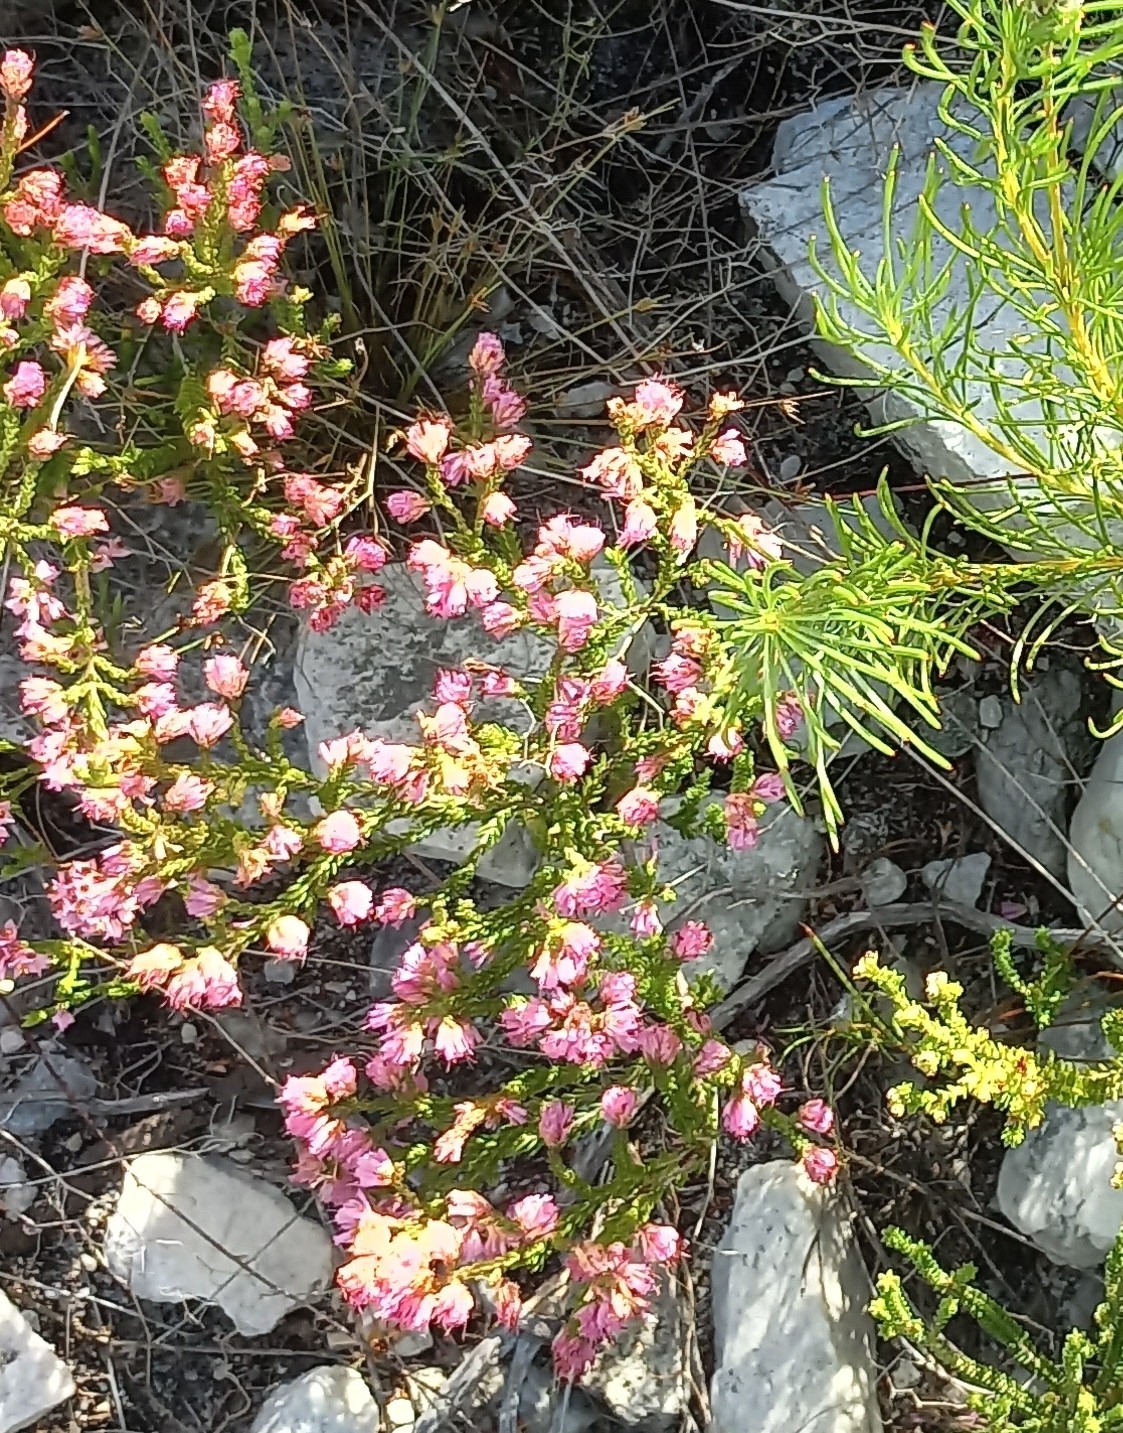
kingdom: Plantae
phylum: Tracheophyta
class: Magnoliopsida
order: Ericales
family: Ericaceae
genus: Erica
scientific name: Erica labialis
